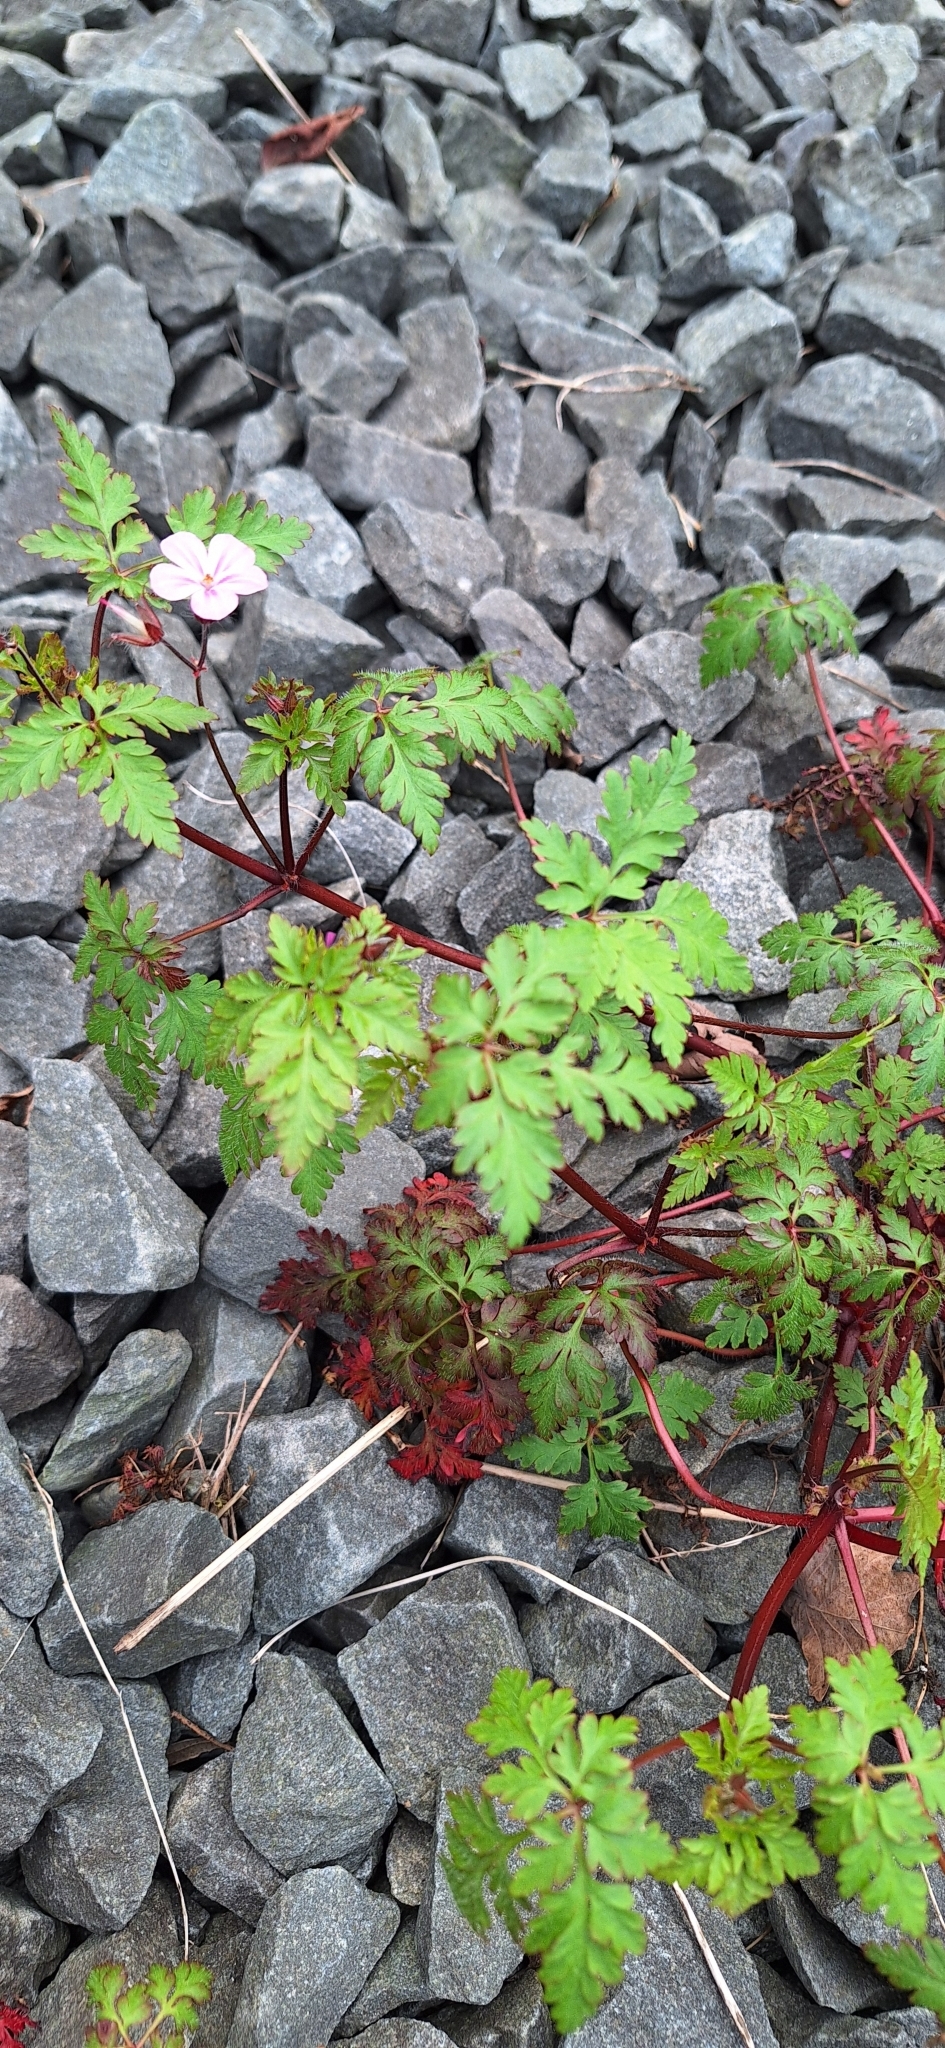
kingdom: Plantae
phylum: Tracheophyta
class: Magnoliopsida
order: Geraniales
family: Geraniaceae
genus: Geranium
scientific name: Geranium robertianum
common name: Herb-robert
